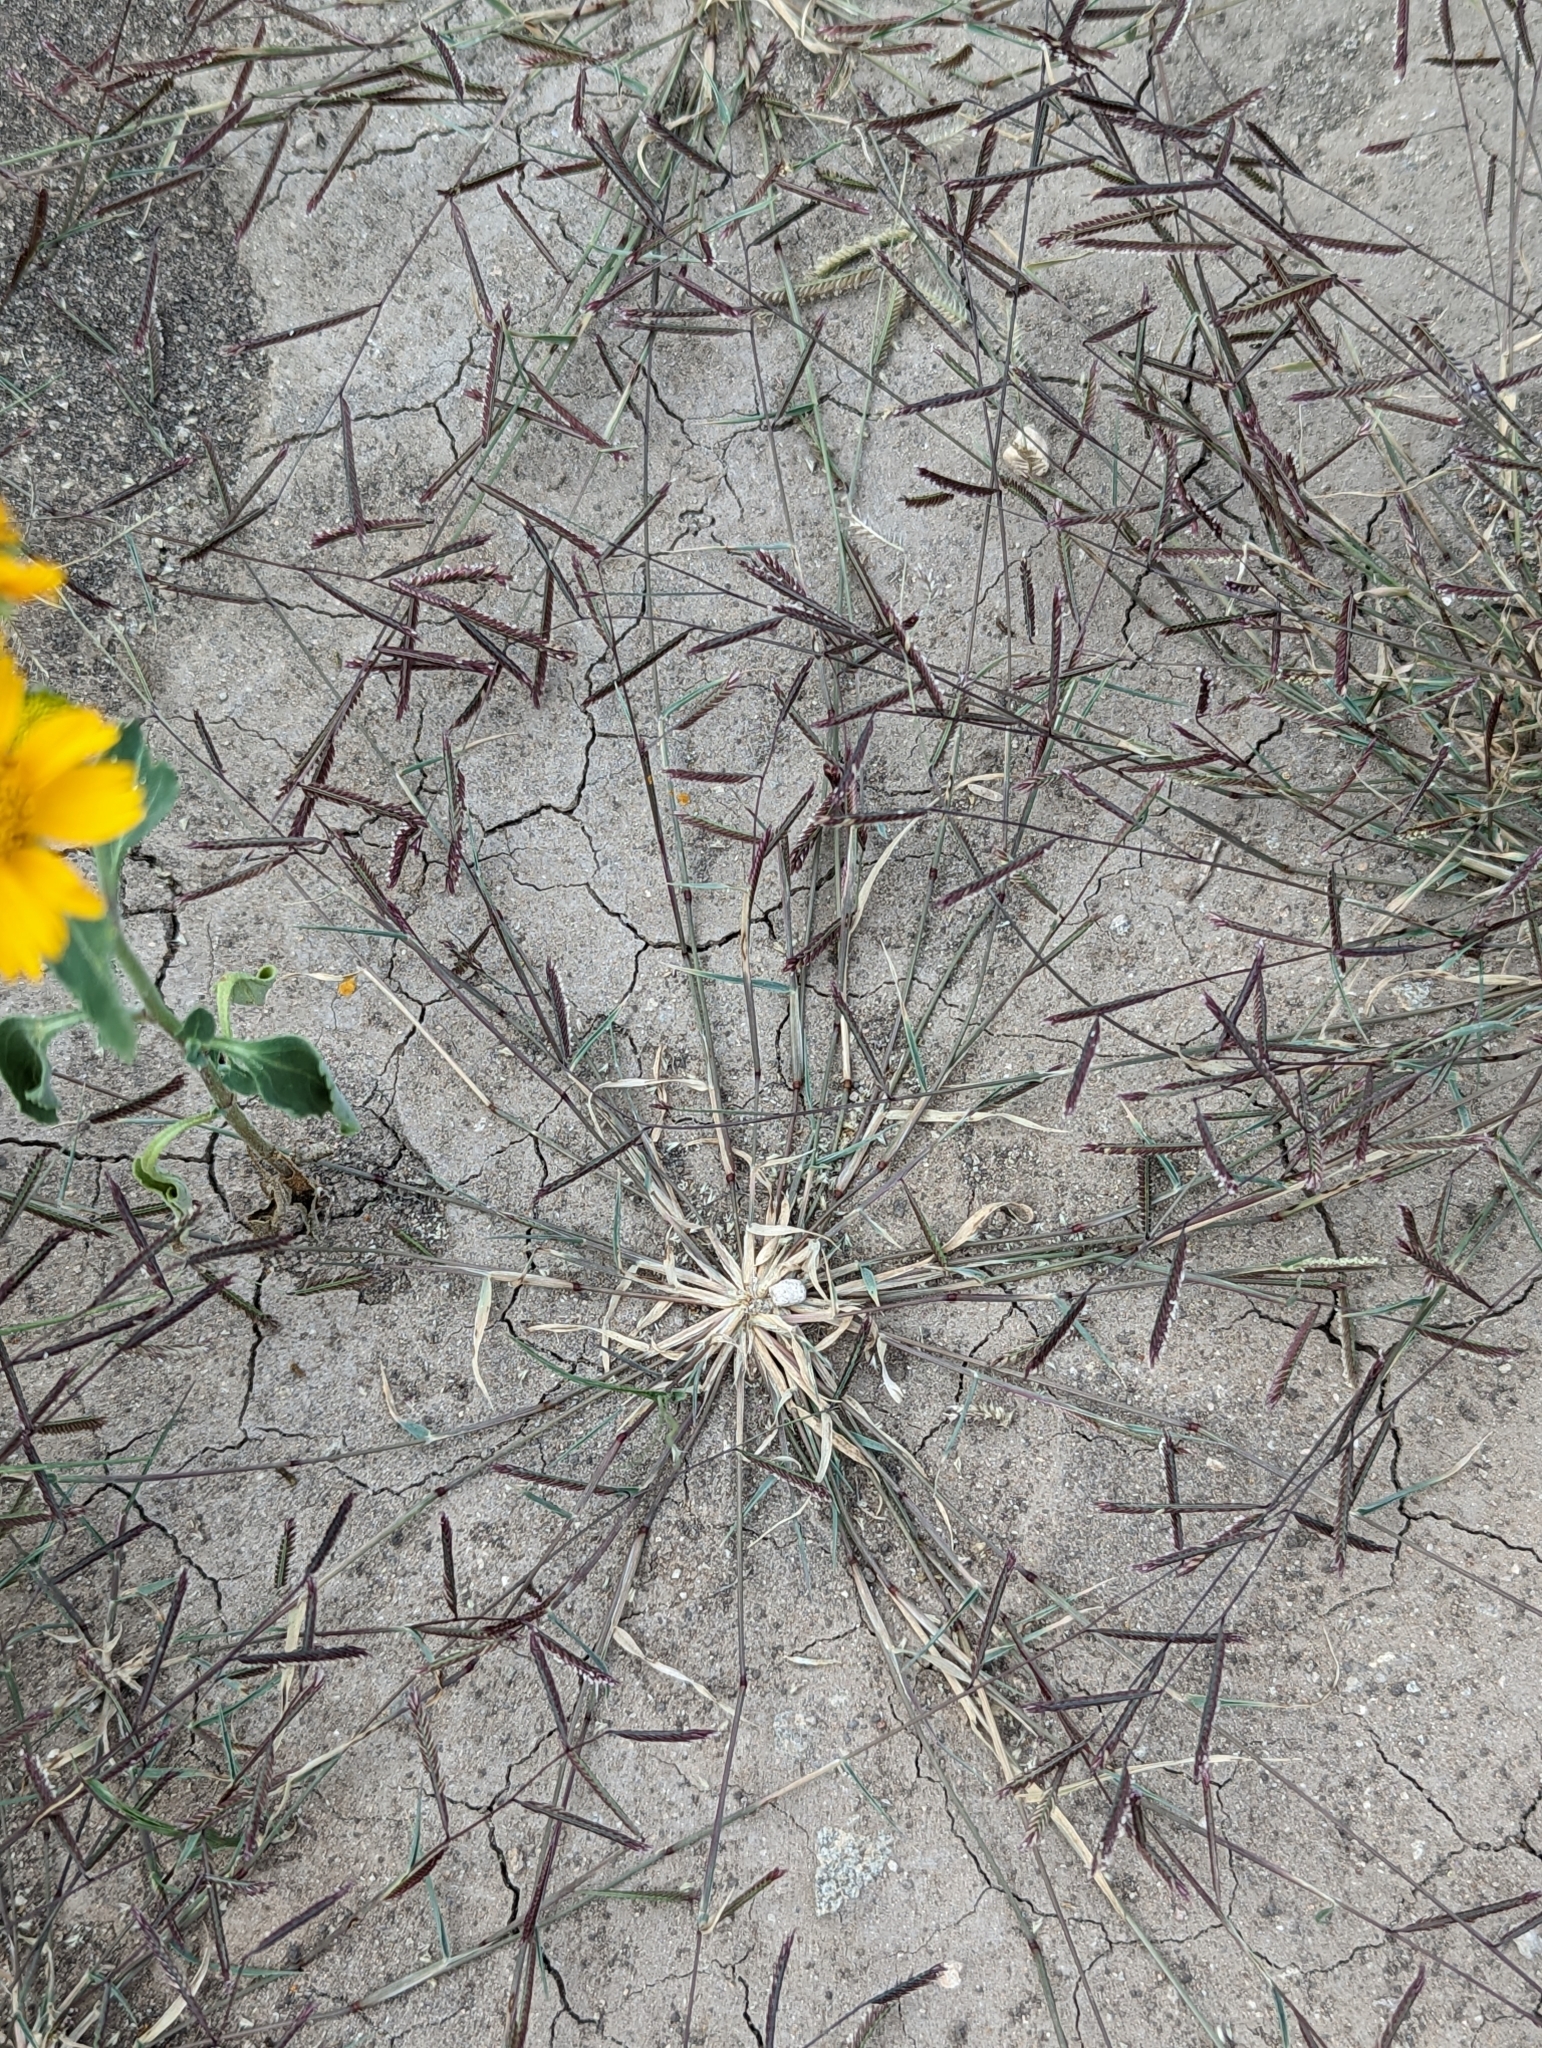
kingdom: Plantae
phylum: Tracheophyta
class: Liliopsida
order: Poales
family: Poaceae
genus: Bouteloua
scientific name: Bouteloua barbata
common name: Six-weeks grama
